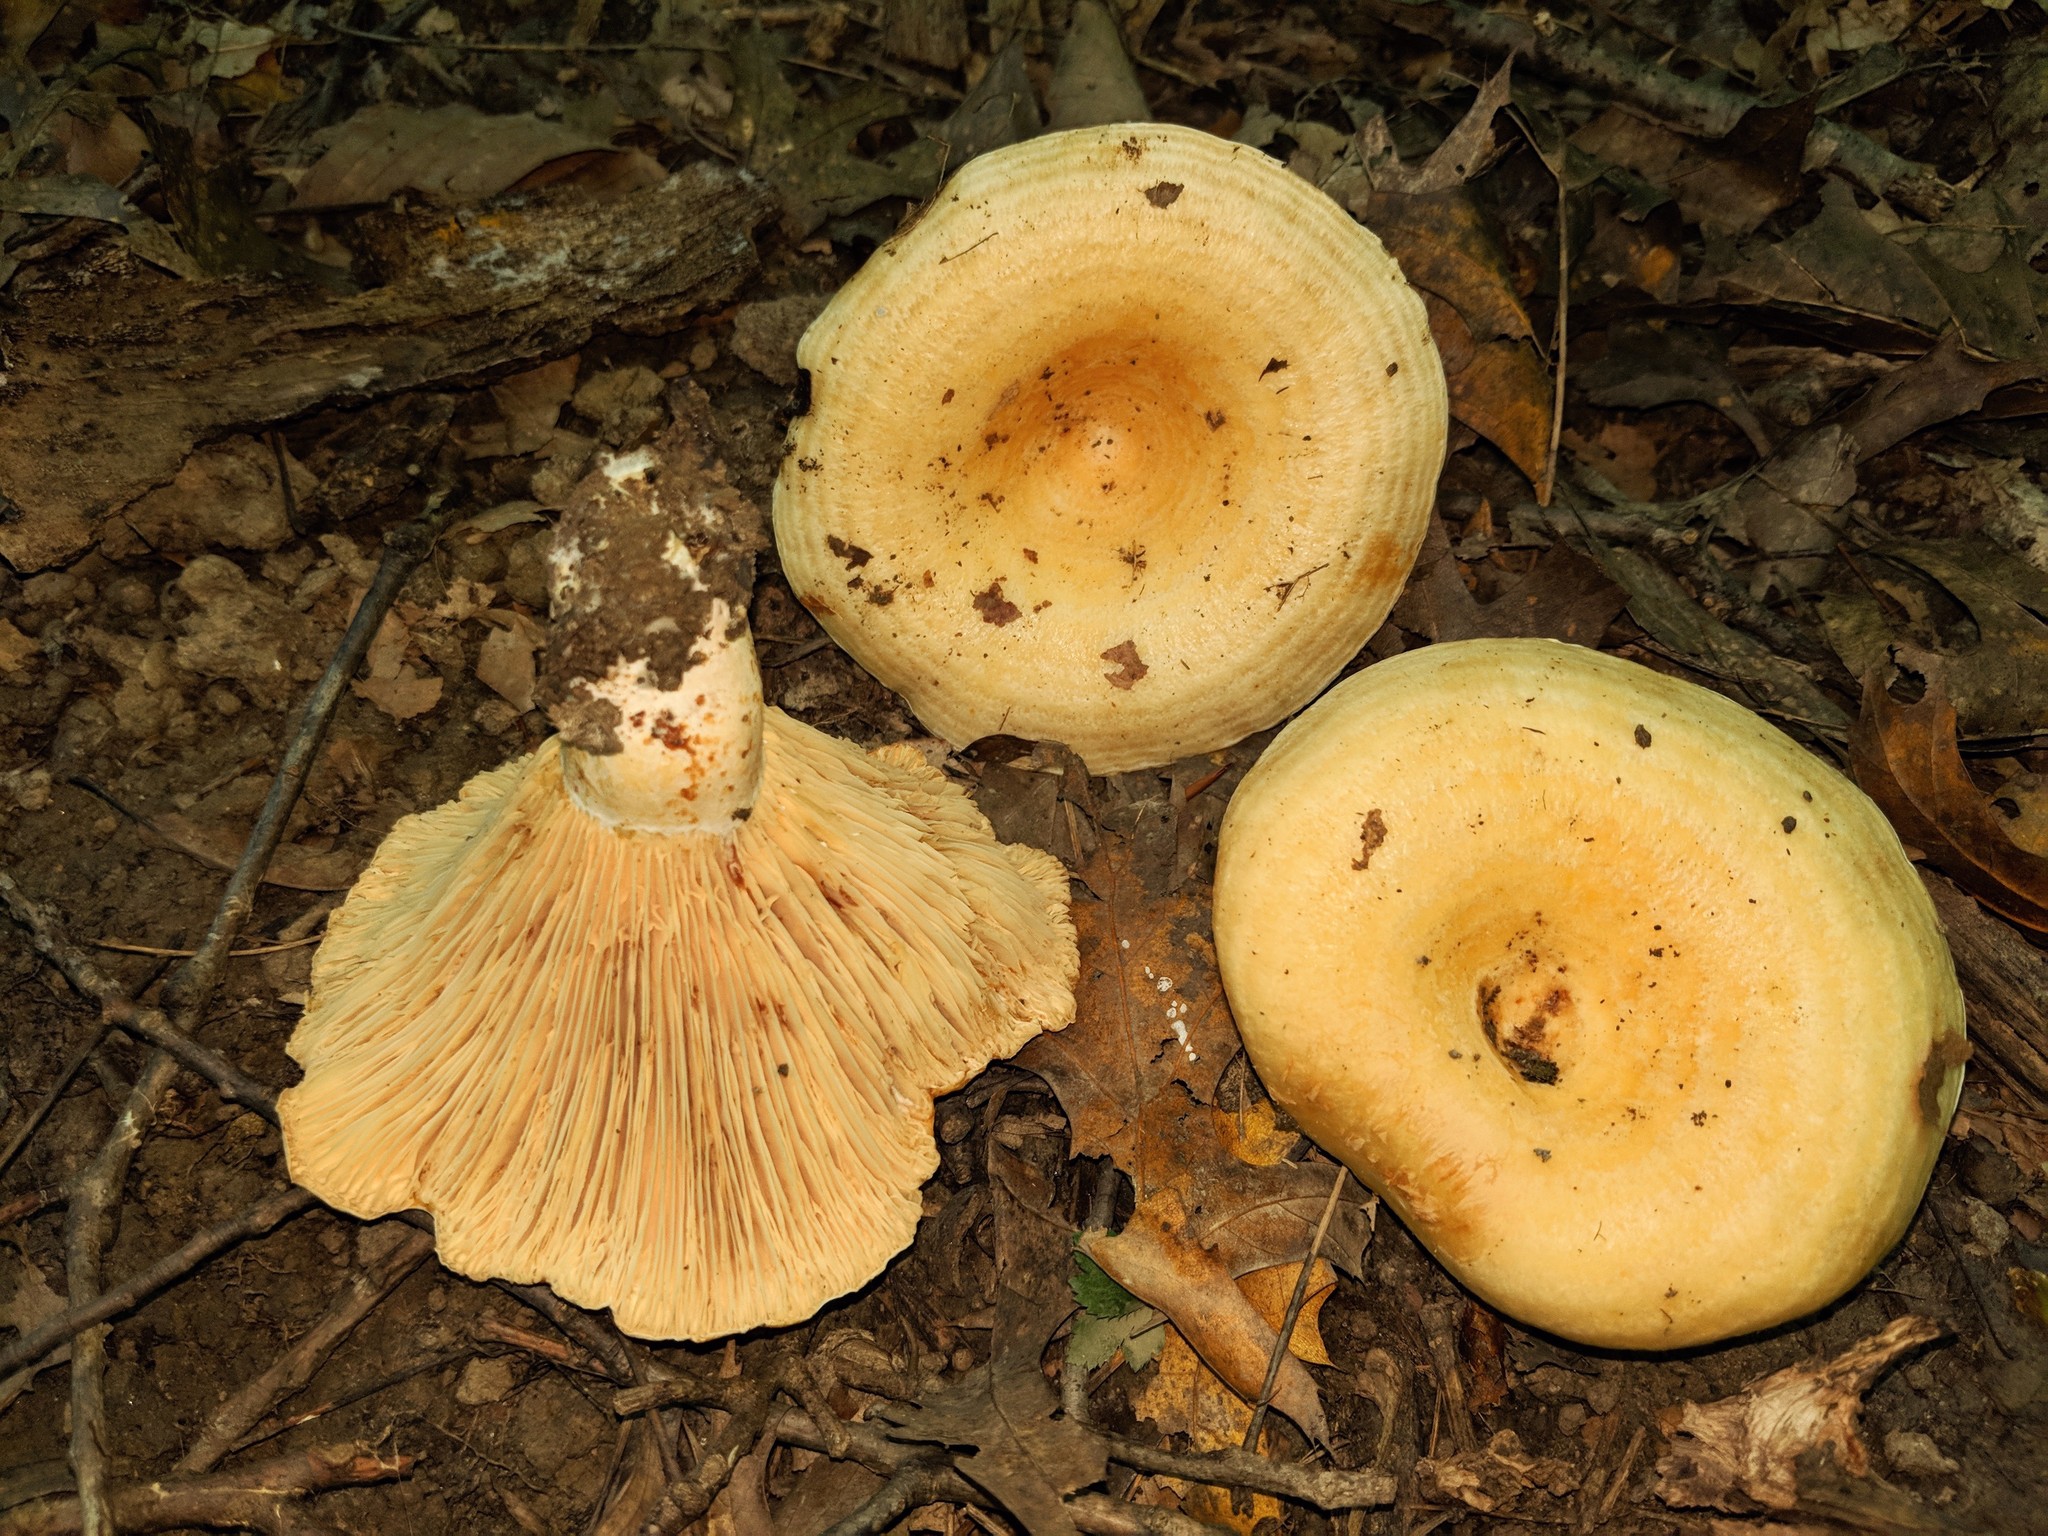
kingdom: Fungi
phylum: Basidiomycota
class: Agaricomycetes
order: Russulales
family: Russulaceae
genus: Lactarius
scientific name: Lactarius psammicola
